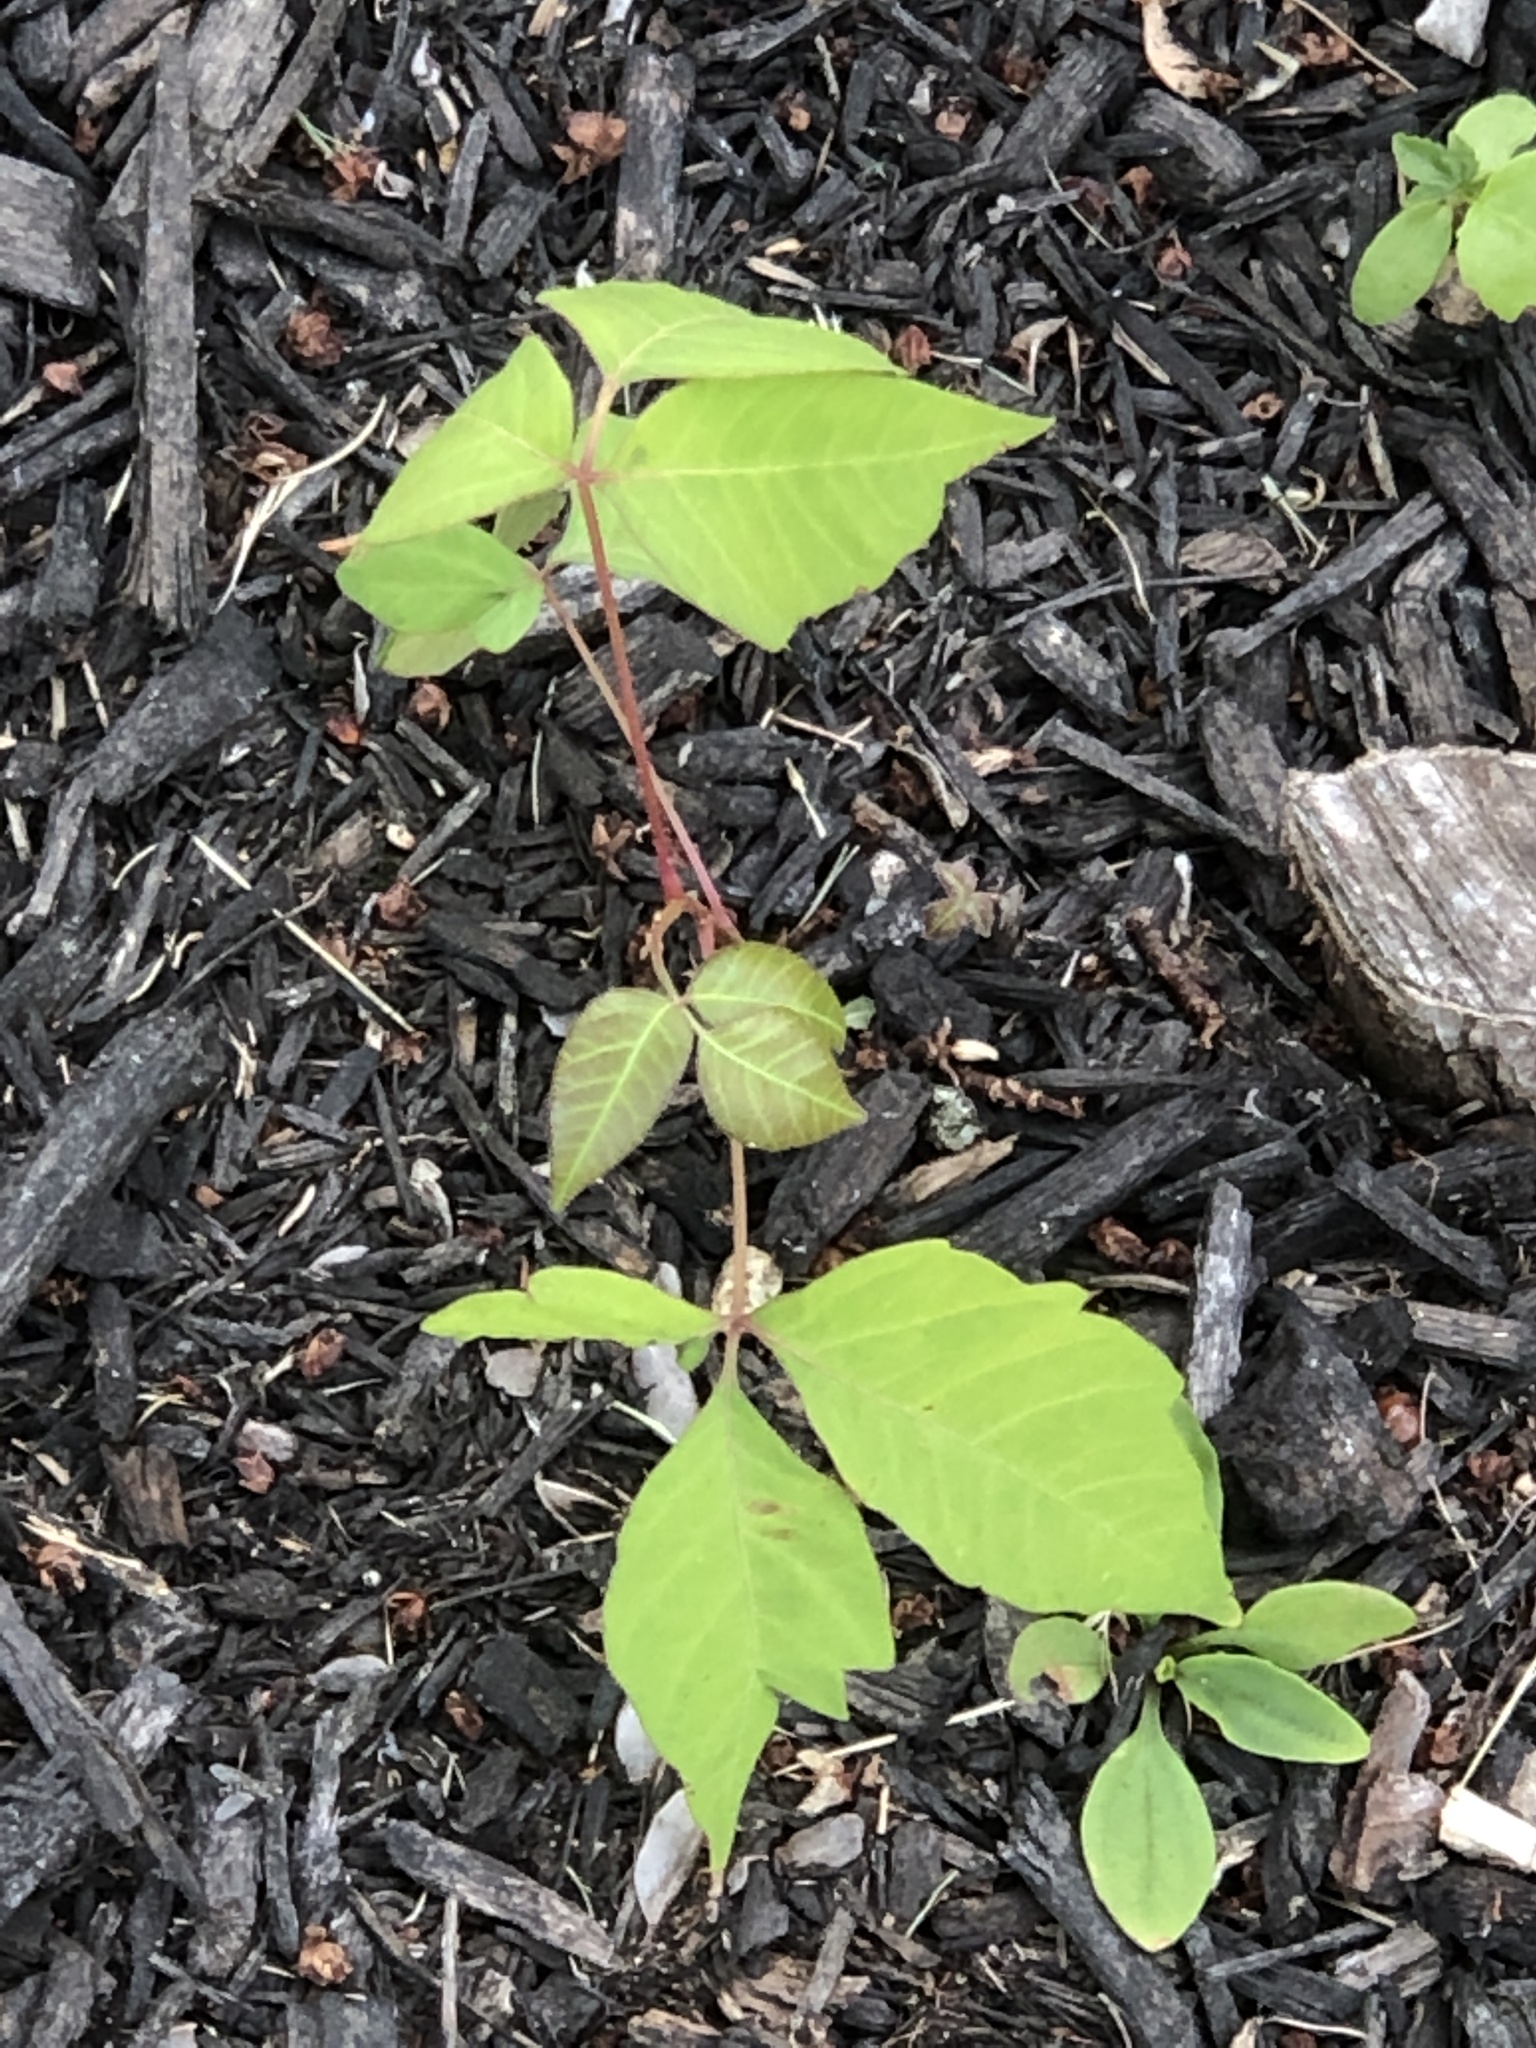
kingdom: Plantae
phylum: Tracheophyta
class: Magnoliopsida
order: Sapindales
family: Anacardiaceae
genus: Toxicodendron
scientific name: Toxicodendron radicans
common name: Poison ivy
